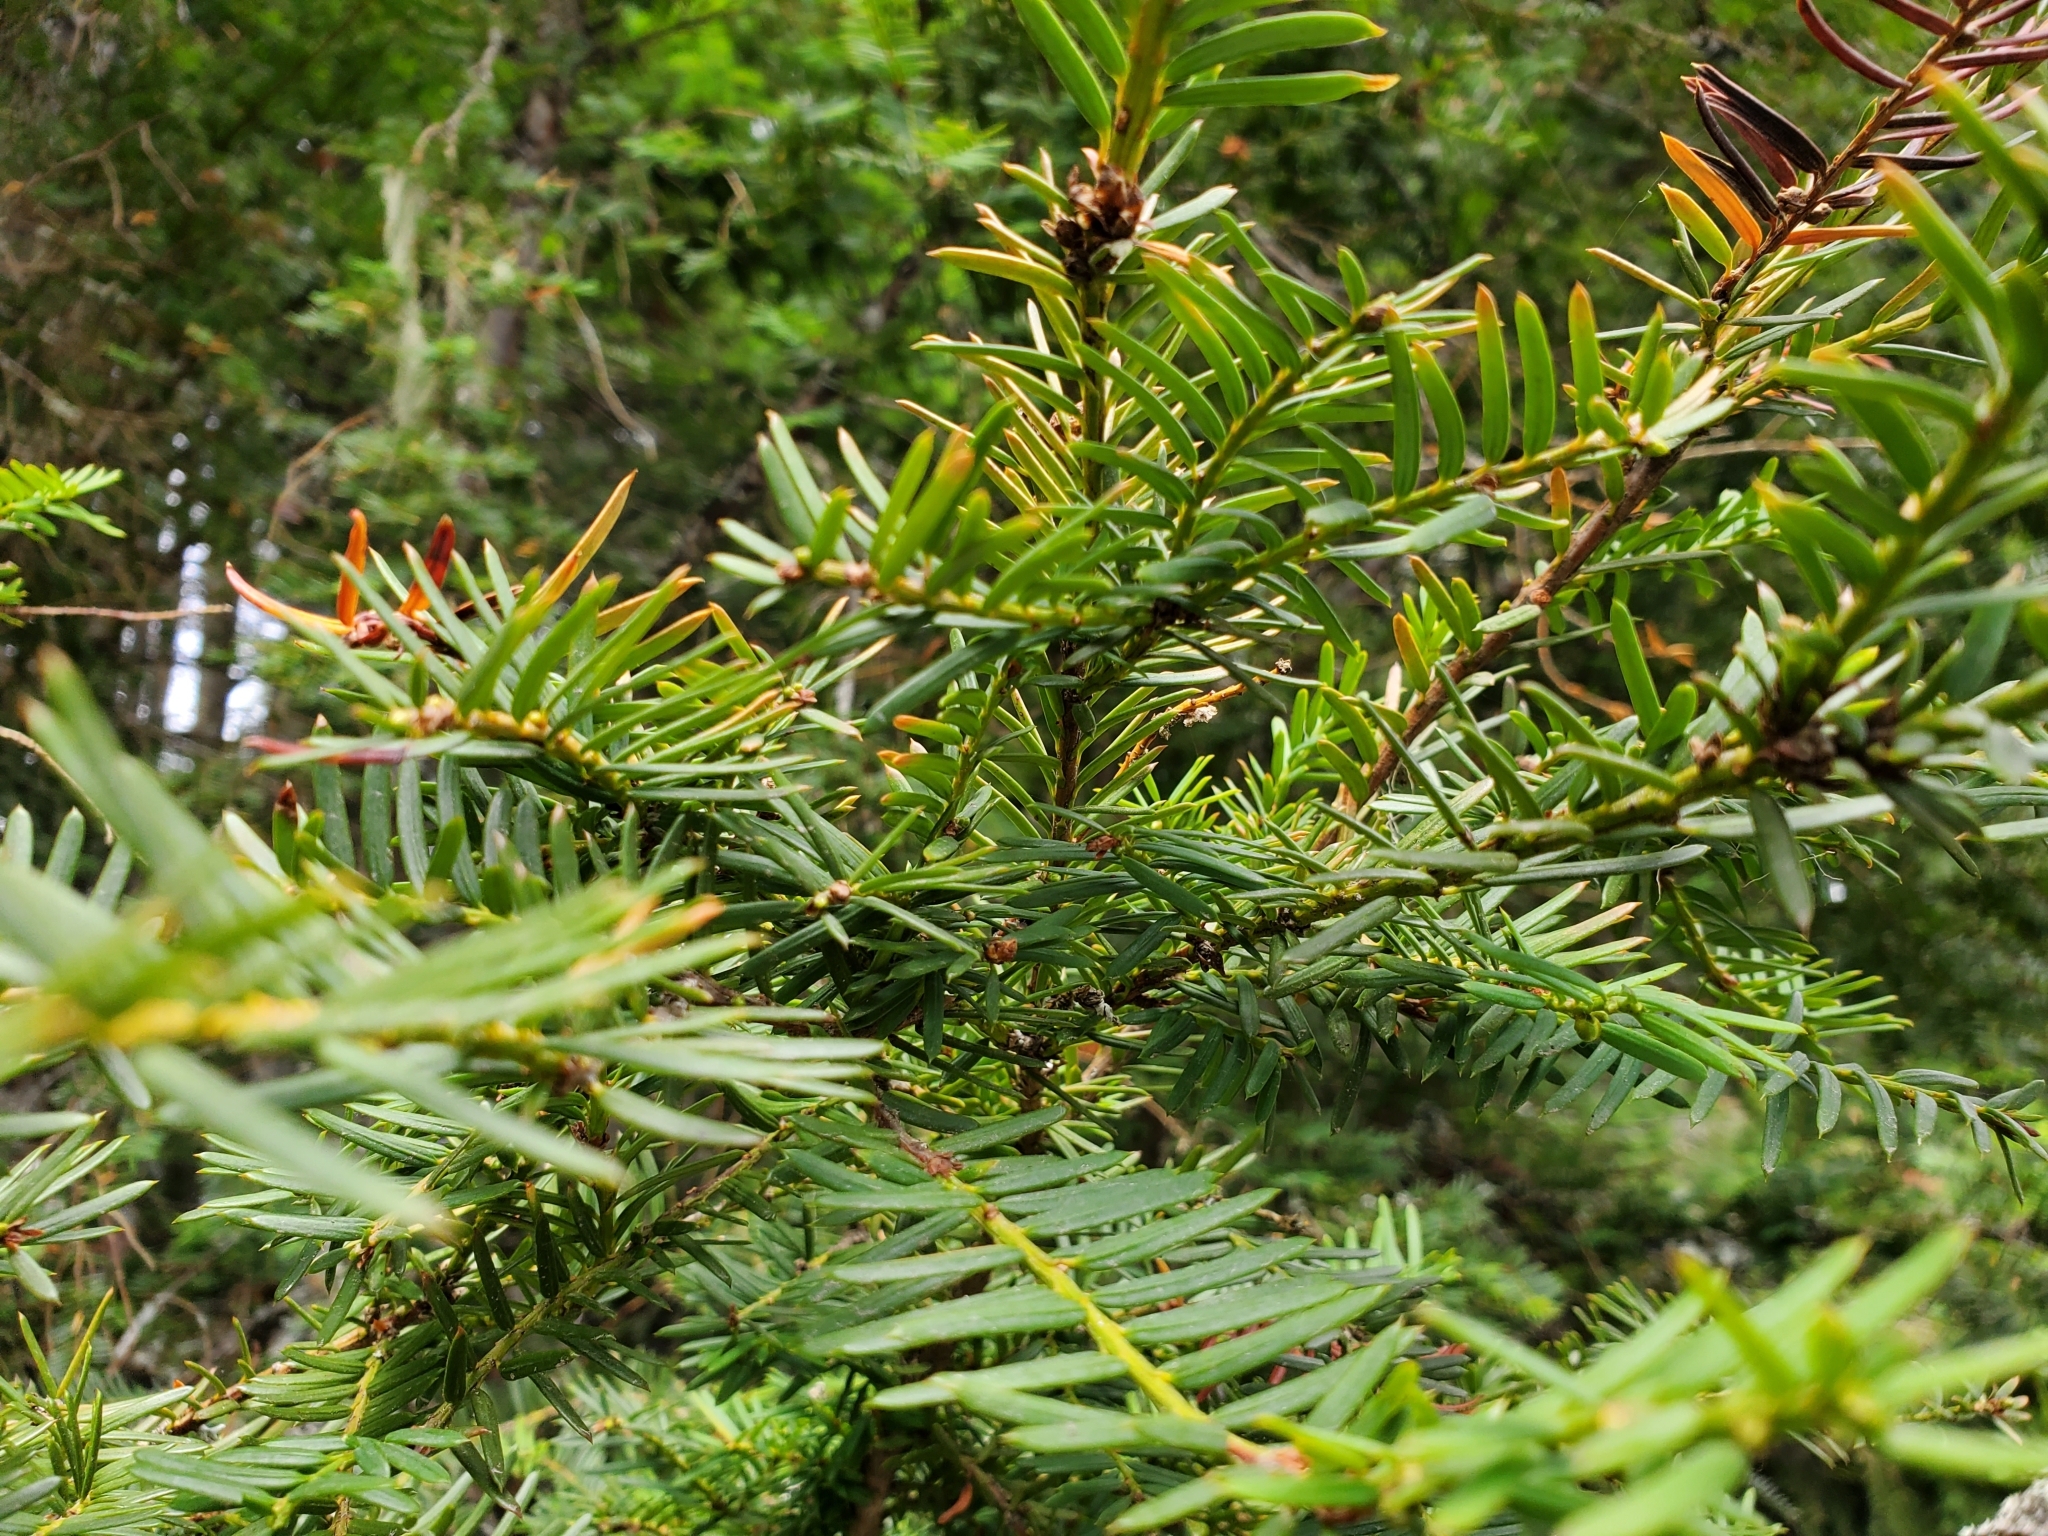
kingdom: Plantae
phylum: Tracheophyta
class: Pinopsida
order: Pinales
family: Taxaceae
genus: Taxus
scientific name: Taxus brevifolia
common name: Pacific yew
